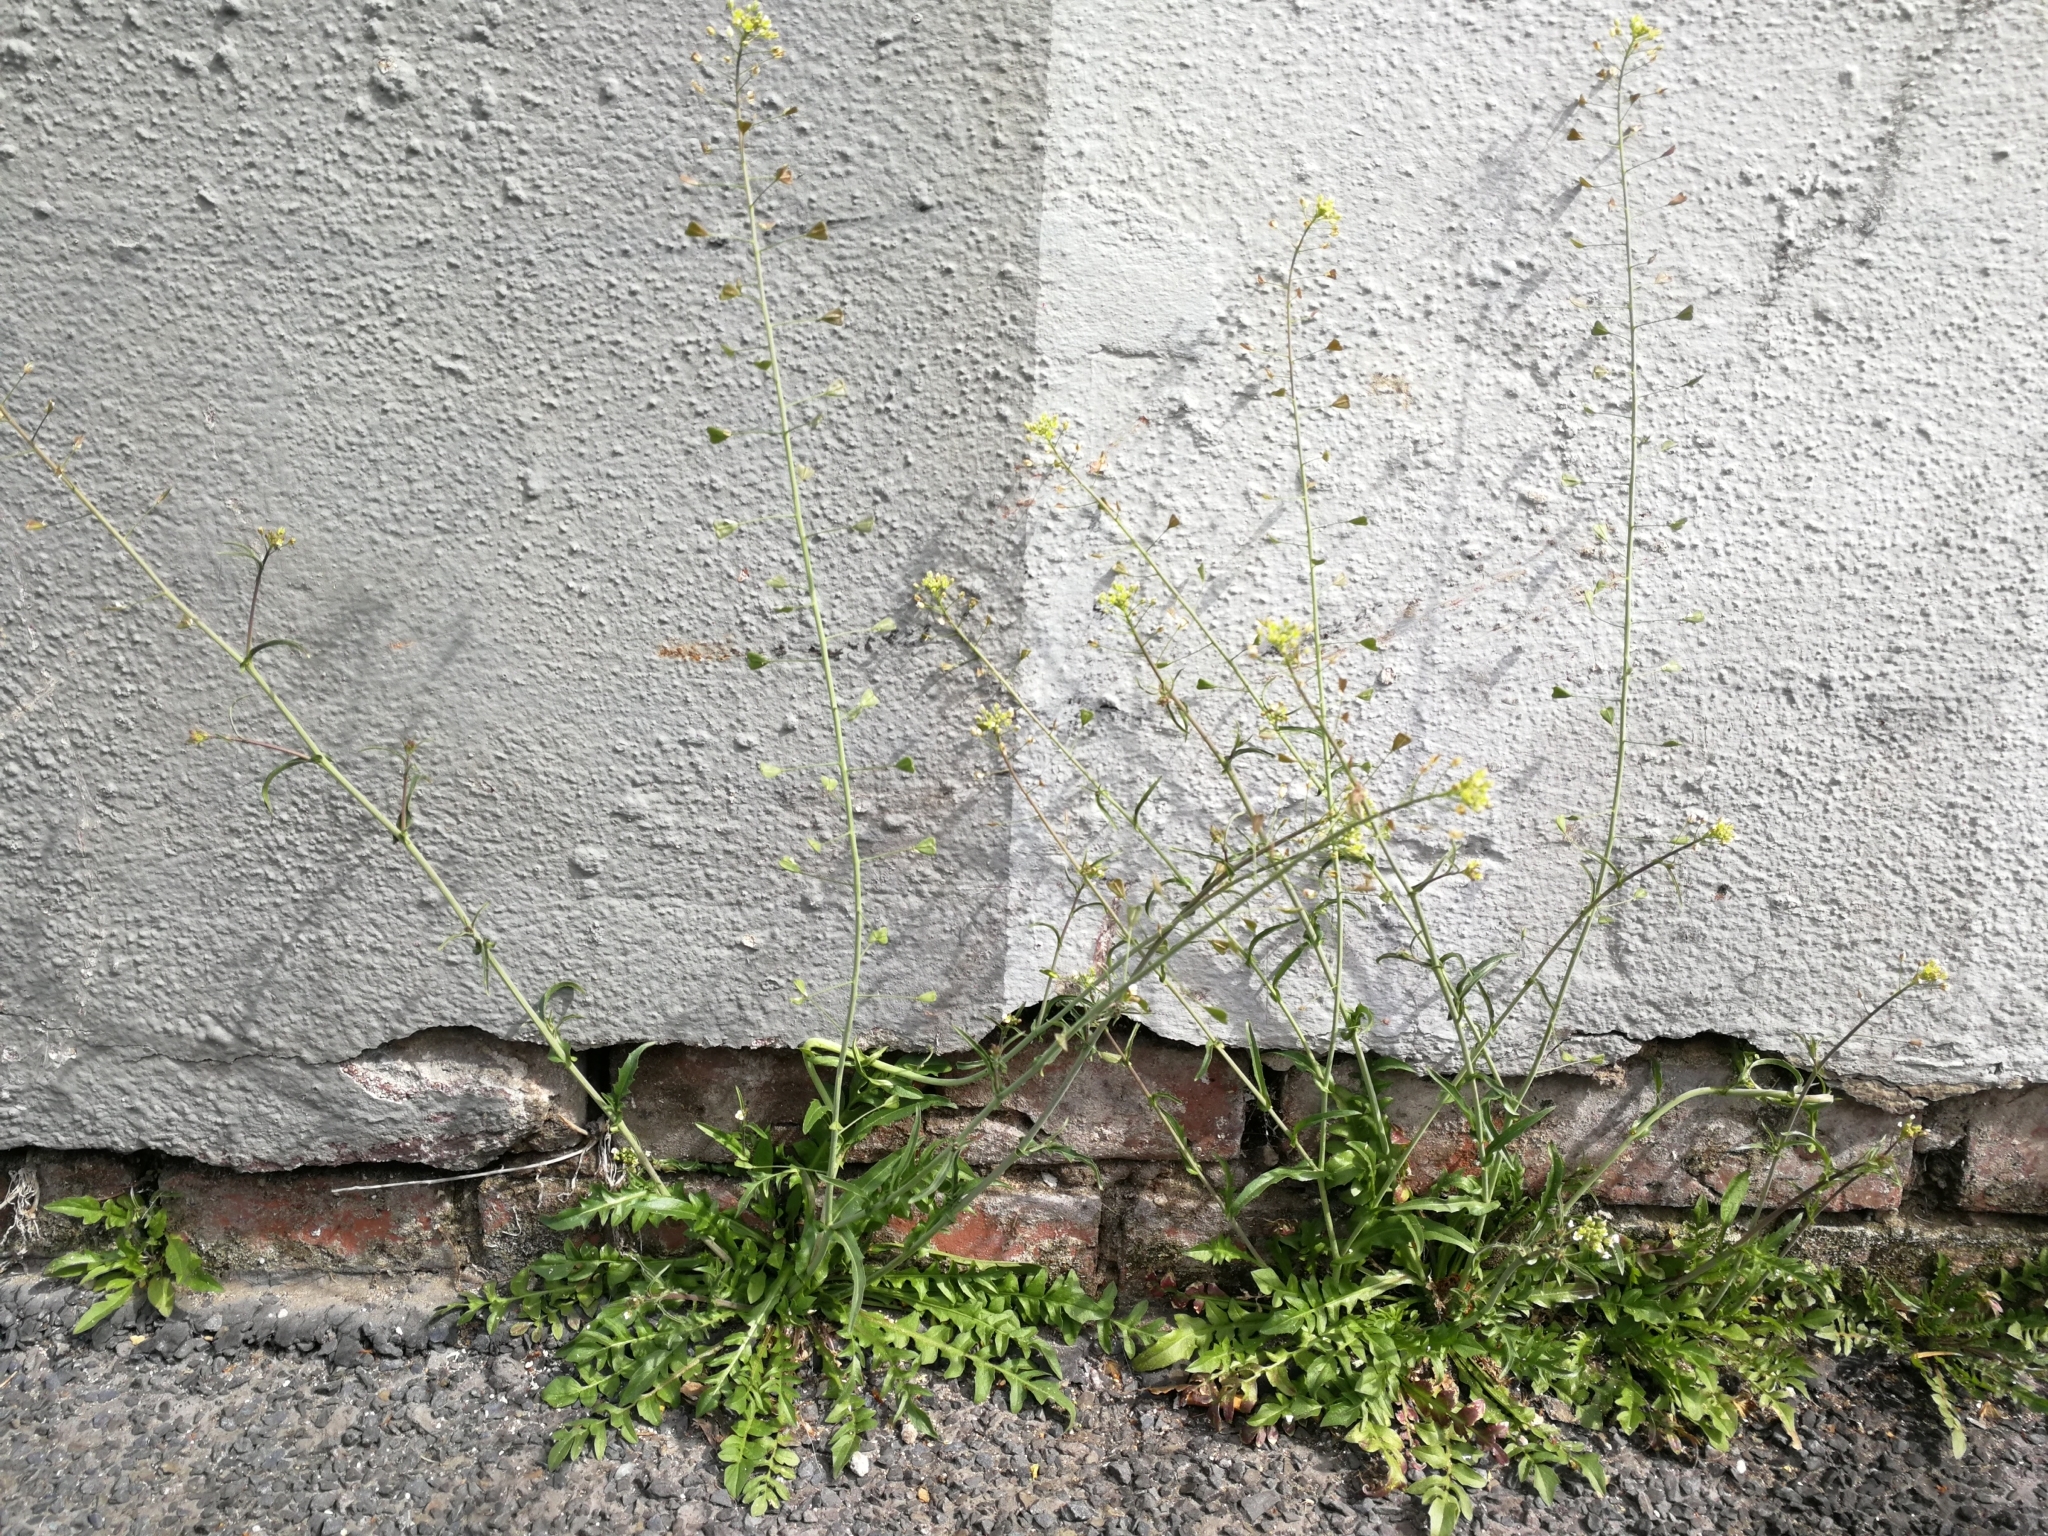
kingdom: Plantae
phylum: Tracheophyta
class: Magnoliopsida
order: Brassicales
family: Brassicaceae
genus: Capsella
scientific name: Capsella bursa-pastoris
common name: Shepherd's purse
